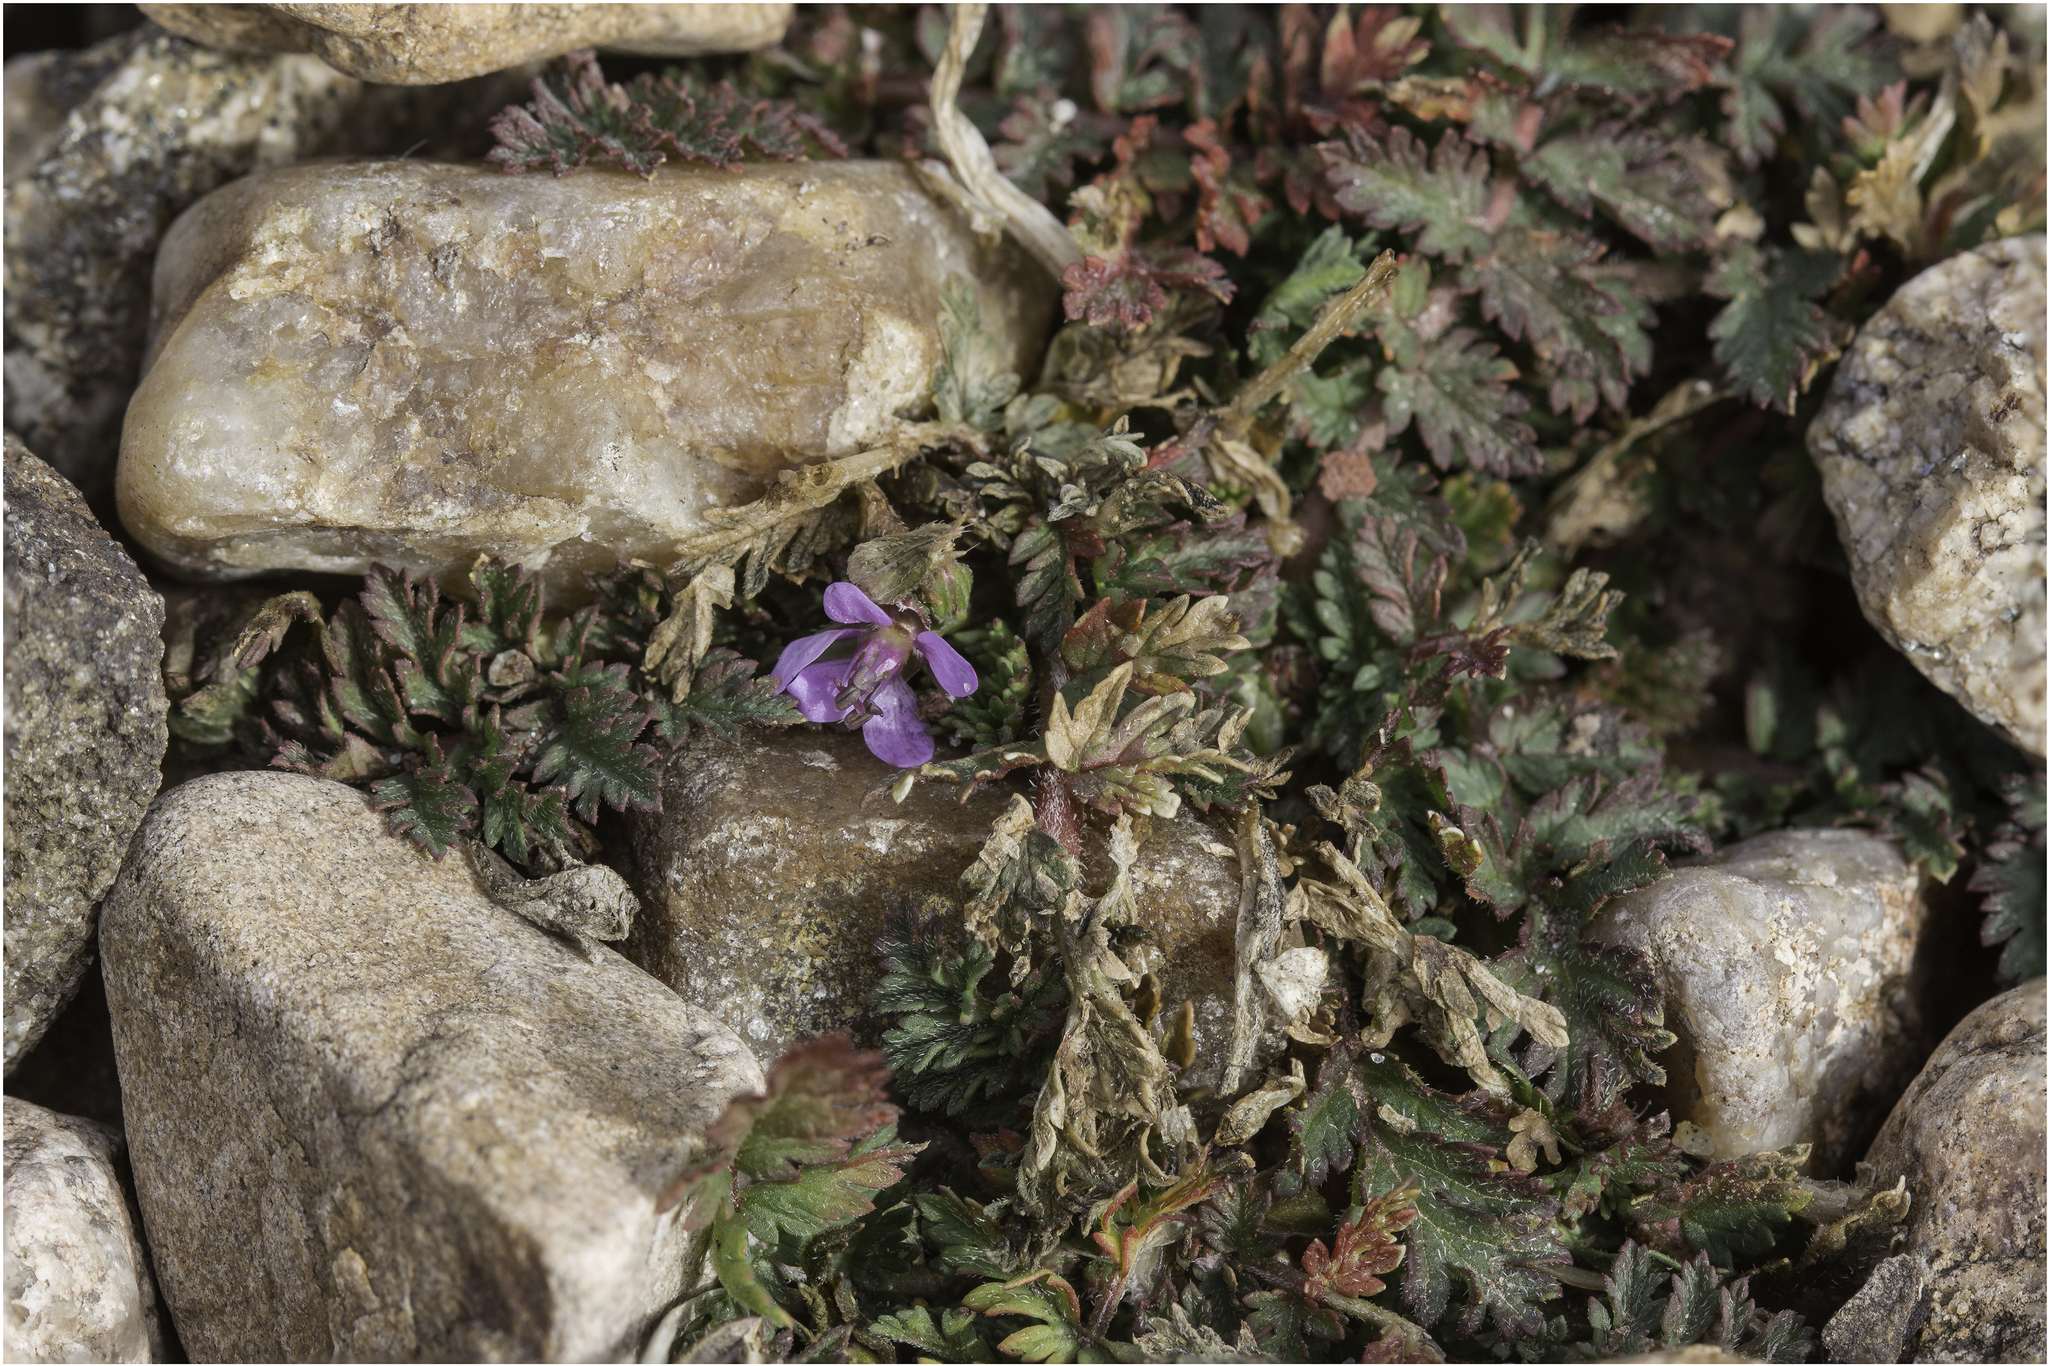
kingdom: Plantae
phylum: Tracheophyta
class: Magnoliopsida
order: Geraniales
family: Geraniaceae
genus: Erodium
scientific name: Erodium cicutarium
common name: Common stork's-bill
